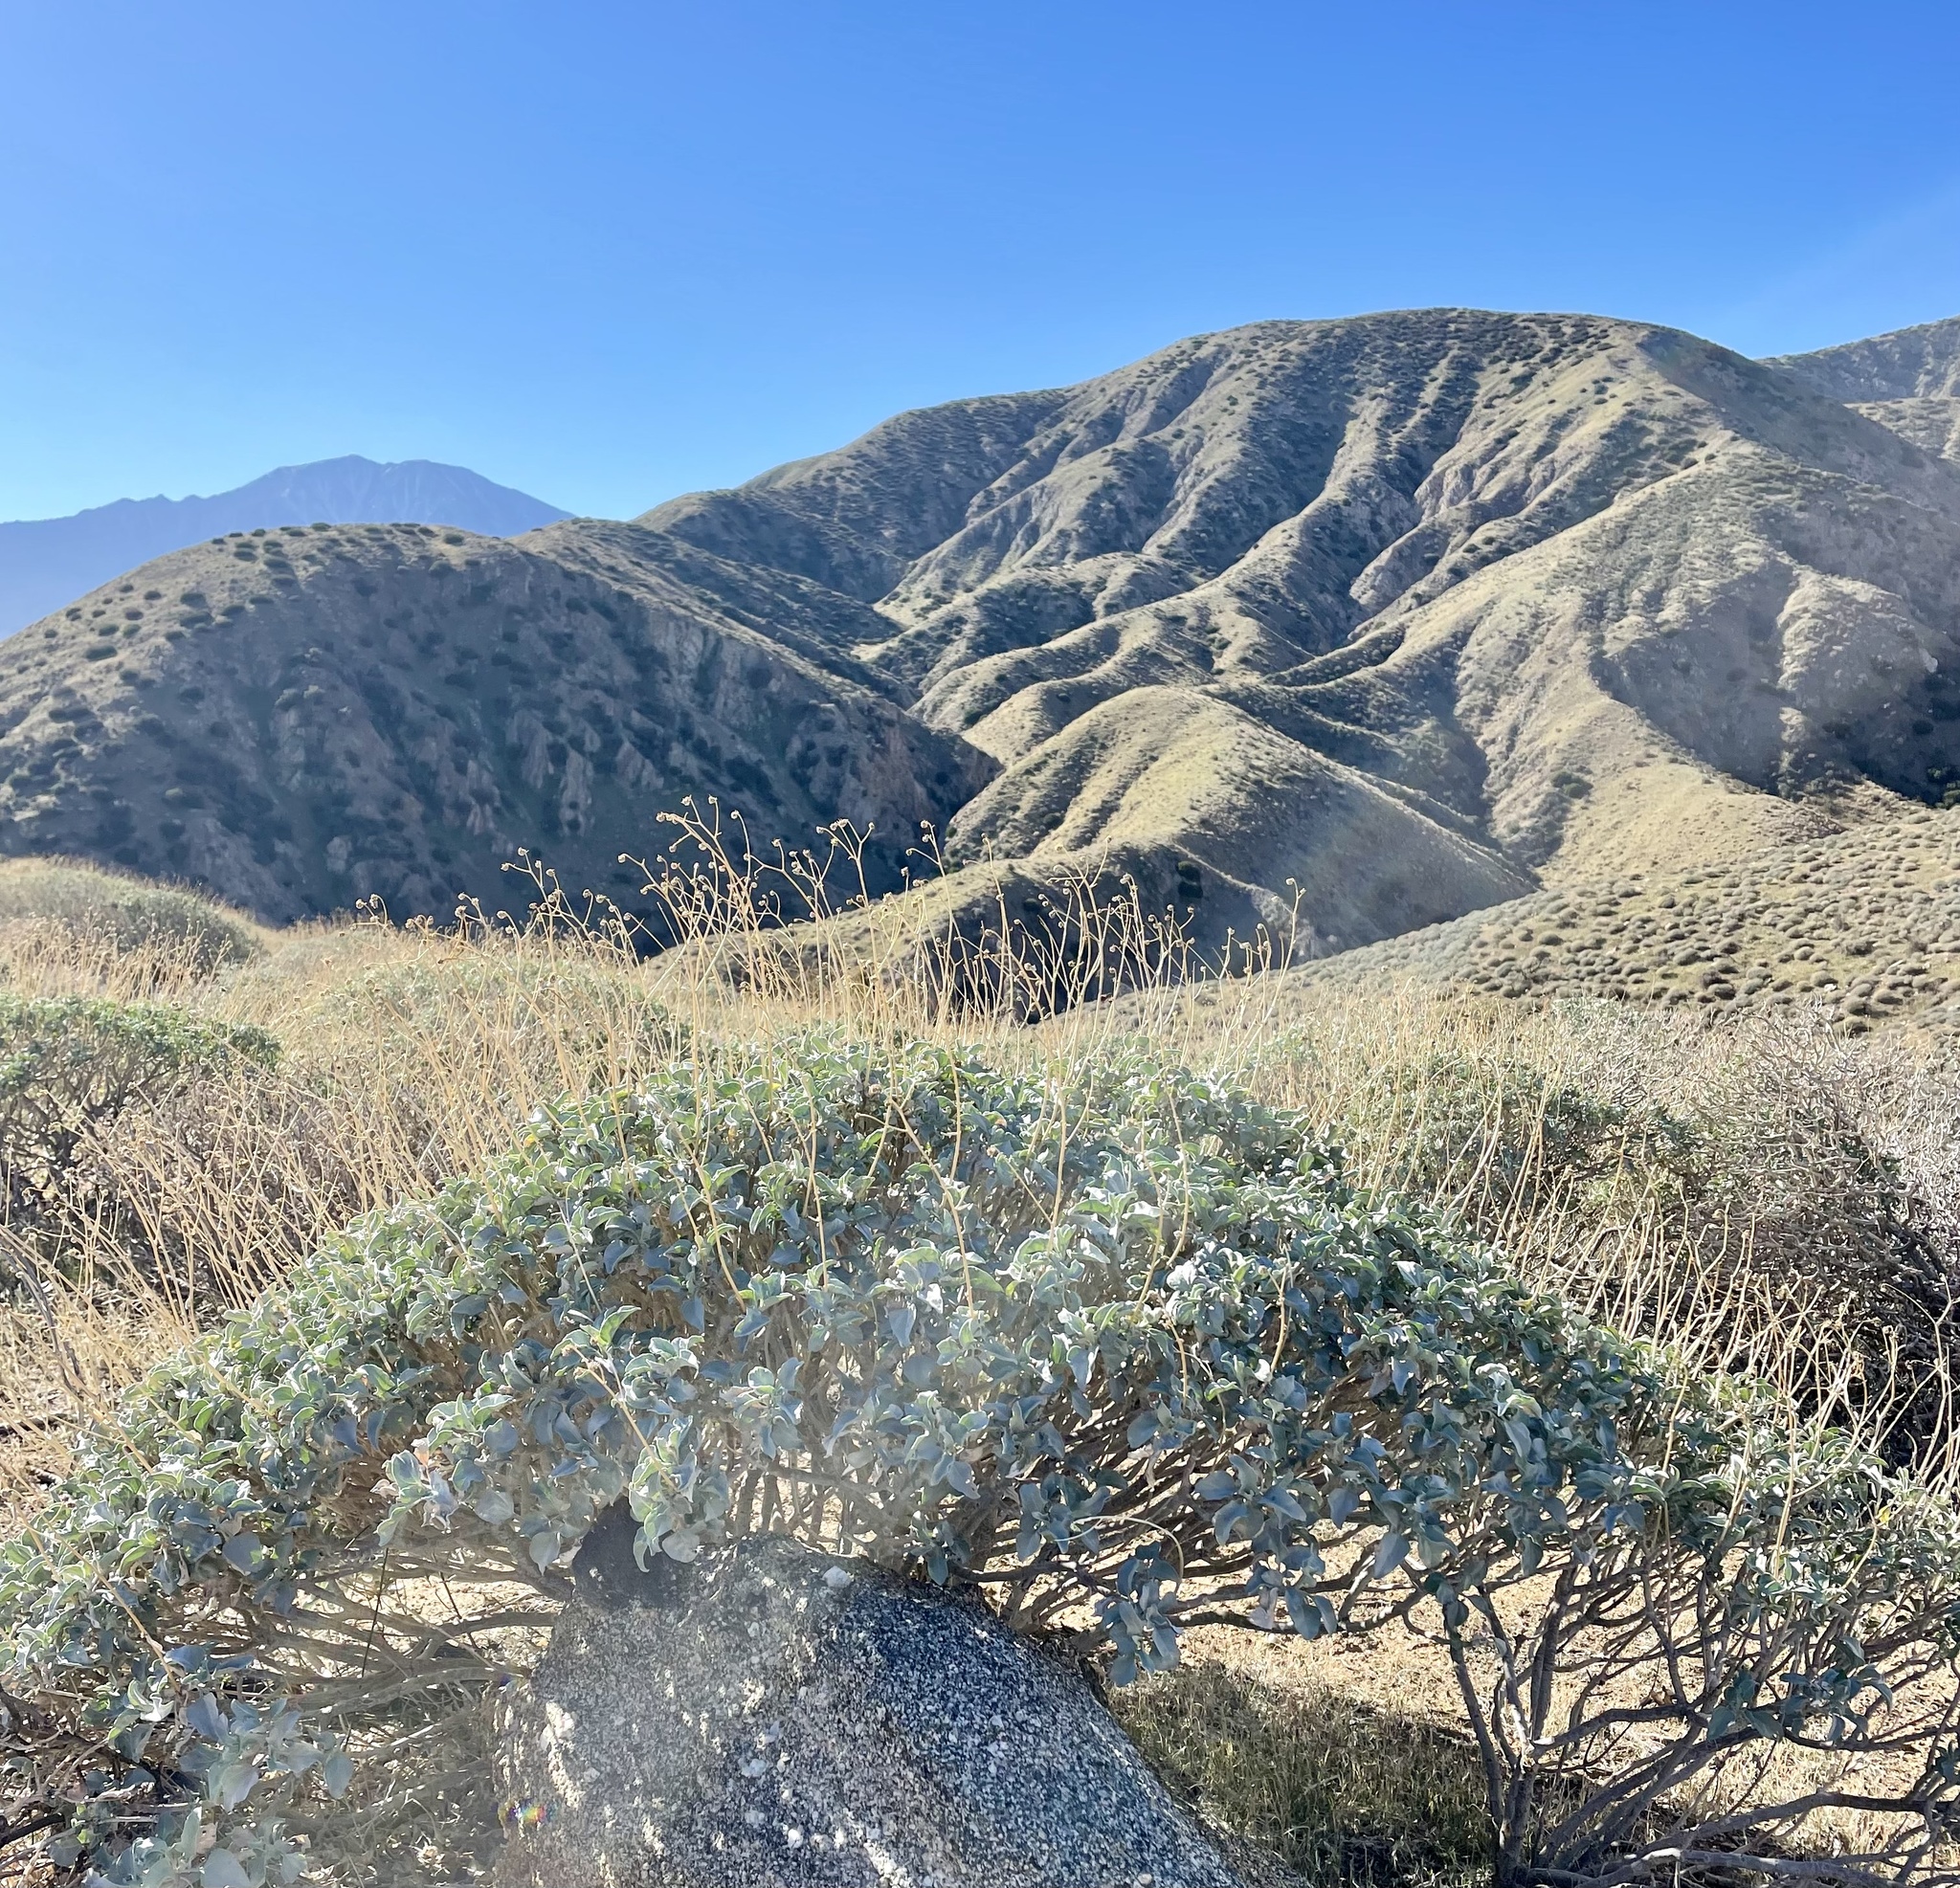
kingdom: Plantae
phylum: Tracheophyta
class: Magnoliopsida
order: Asterales
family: Asteraceae
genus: Encelia
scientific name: Encelia farinosa
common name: Brittlebush
